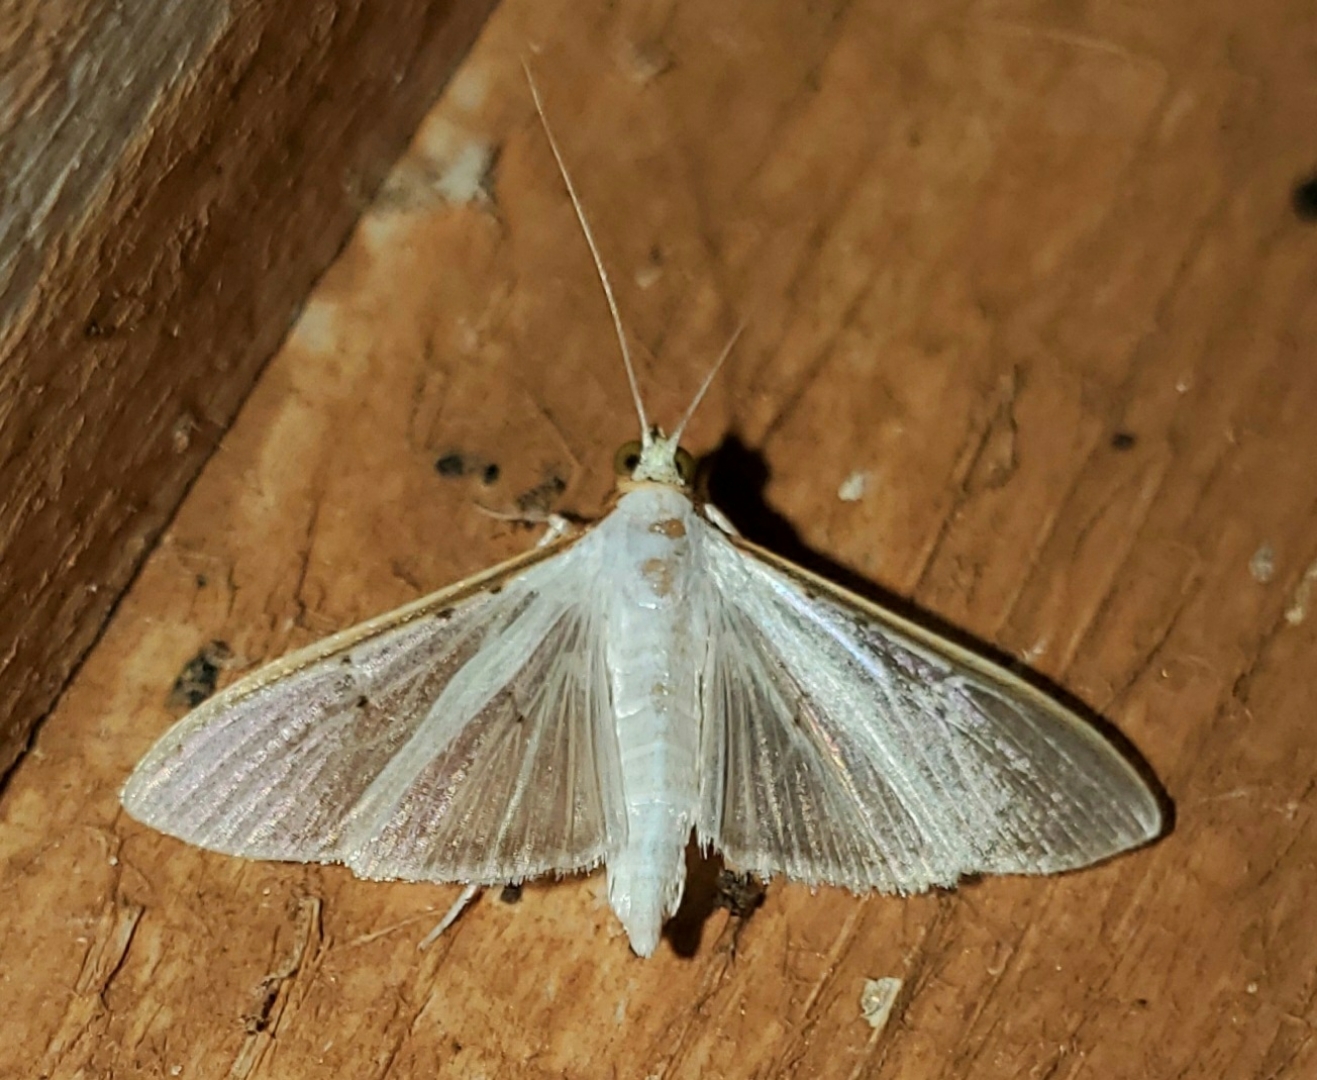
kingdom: Animalia
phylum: Arthropoda
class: Insecta
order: Lepidoptera
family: Crambidae
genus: Palpita
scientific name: Palpita quadristigmalis
